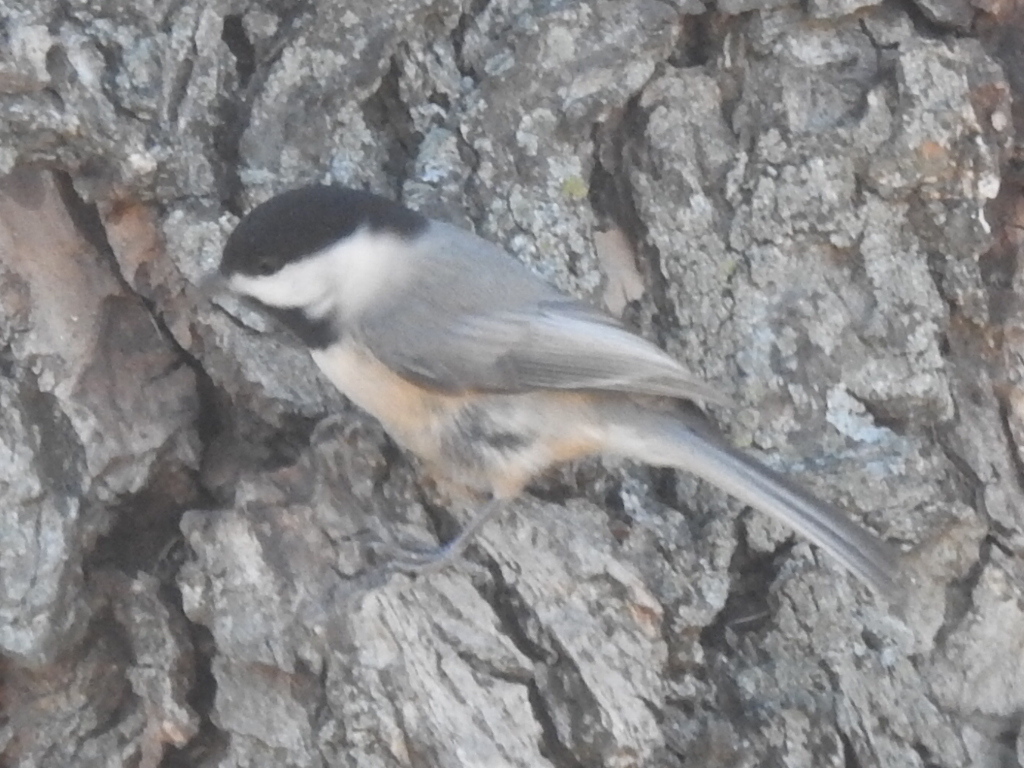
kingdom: Animalia
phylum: Chordata
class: Aves
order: Passeriformes
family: Paridae
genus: Poecile
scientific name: Poecile carolinensis
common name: Carolina chickadee
